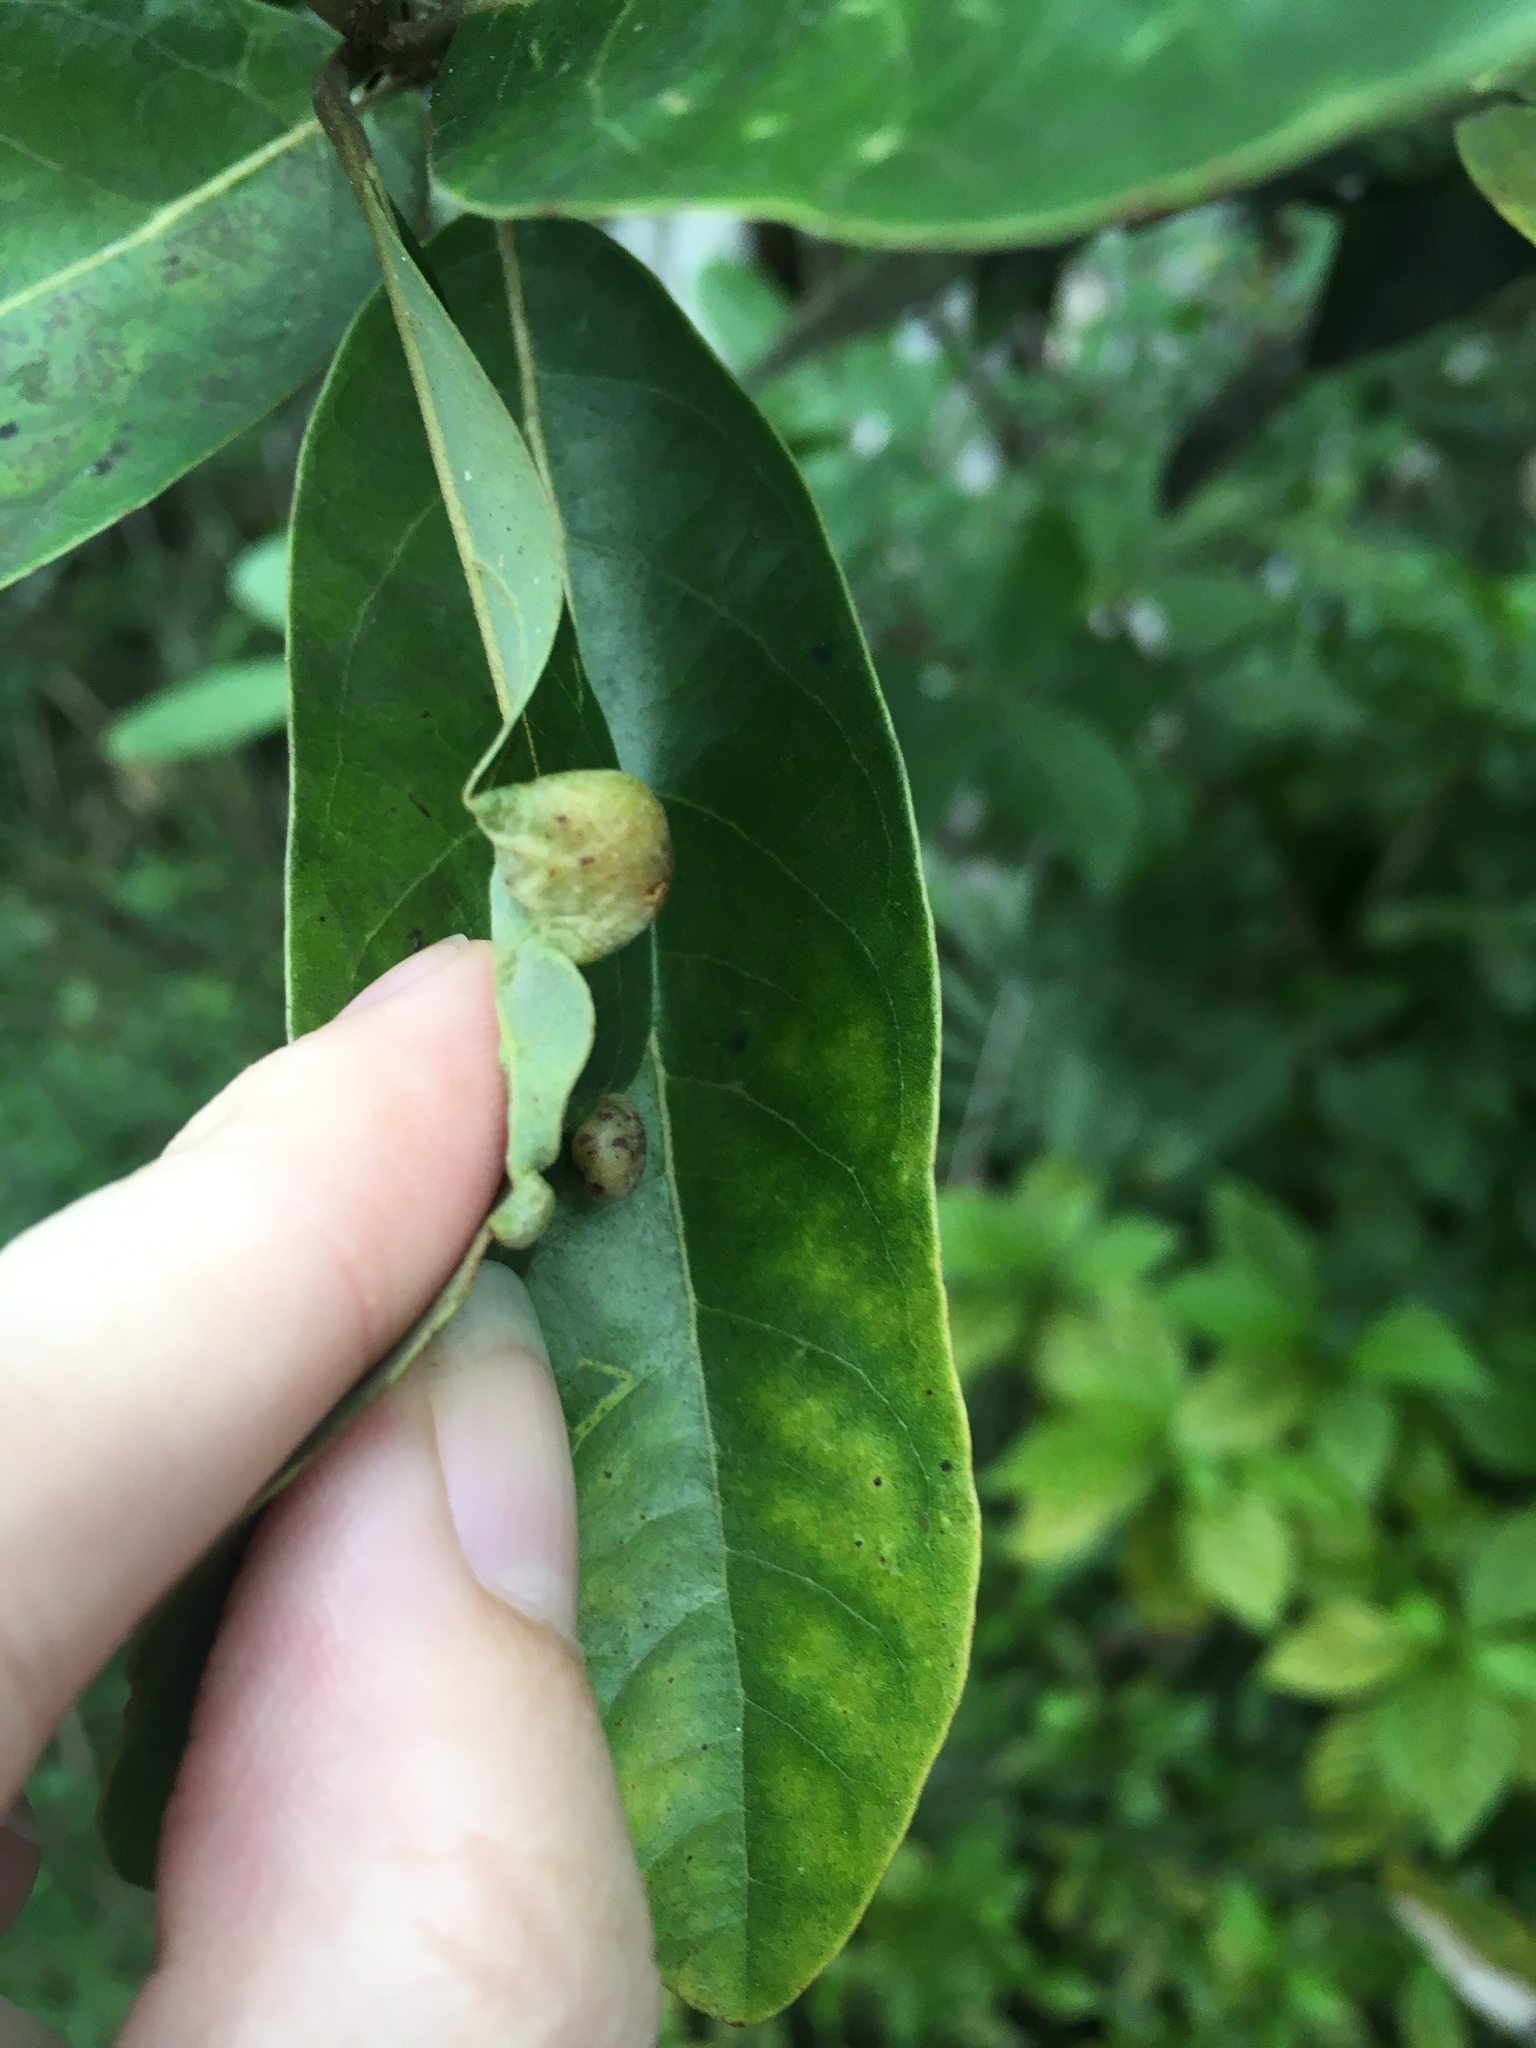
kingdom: Animalia
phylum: Arthropoda
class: Insecta
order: Hemiptera
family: Triozidae
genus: Trioza
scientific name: Trioza magnoliae
